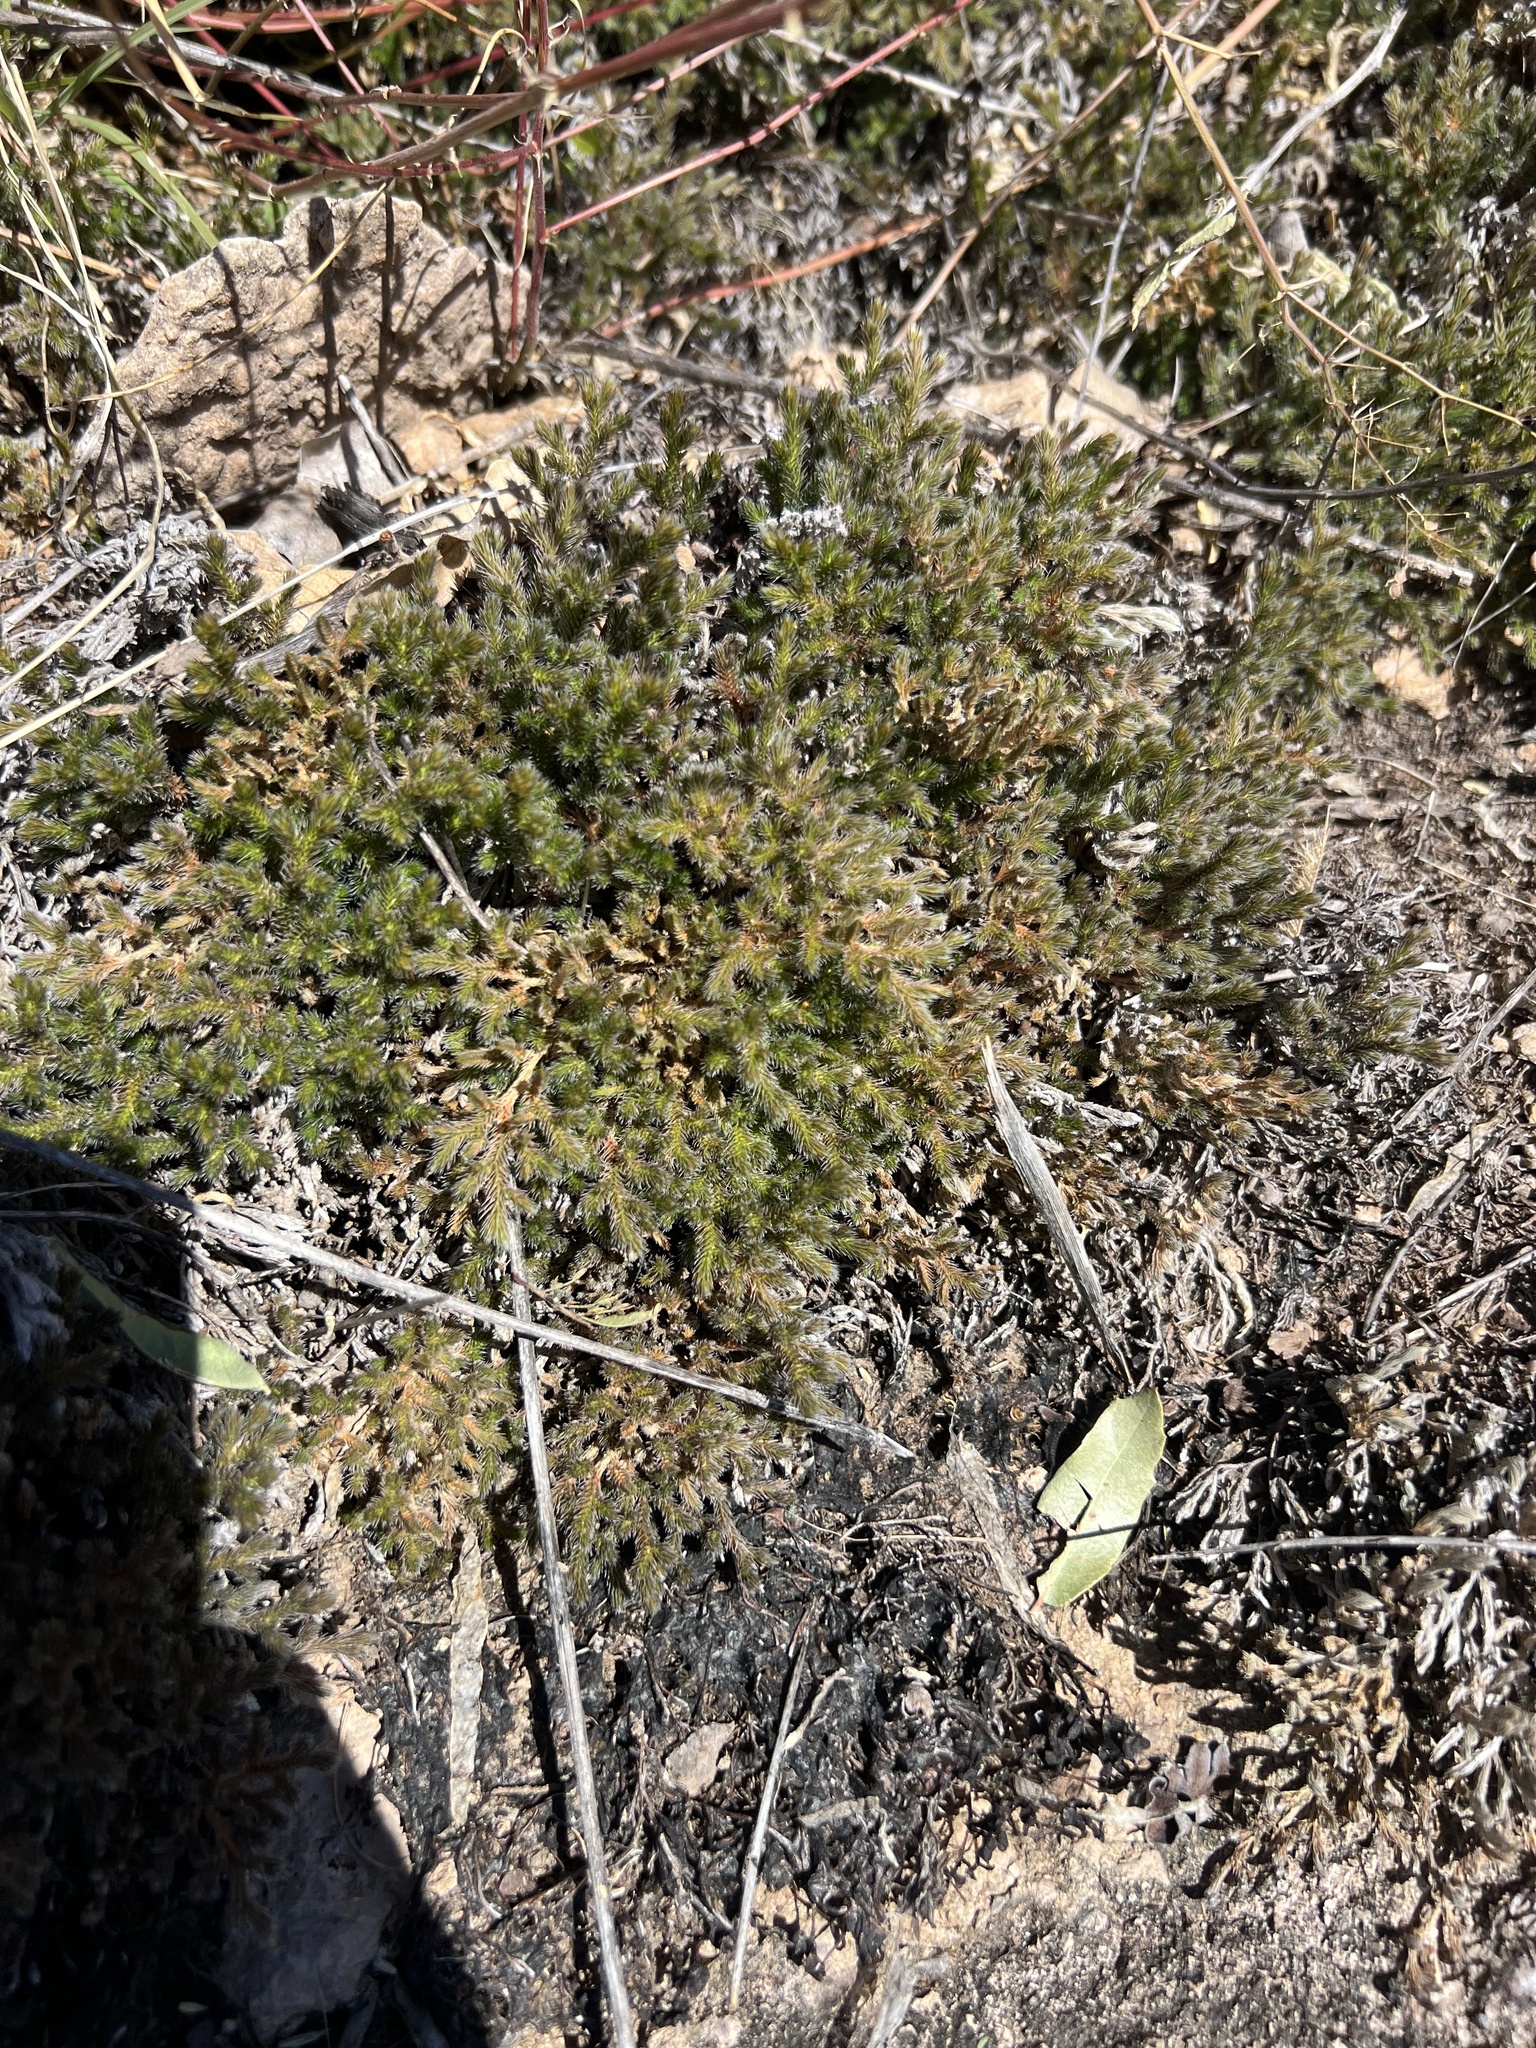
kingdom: Plantae
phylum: Tracheophyta
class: Lycopodiopsida
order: Selaginellales
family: Selaginellaceae
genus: Selaginella
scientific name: Selaginella rupincola
